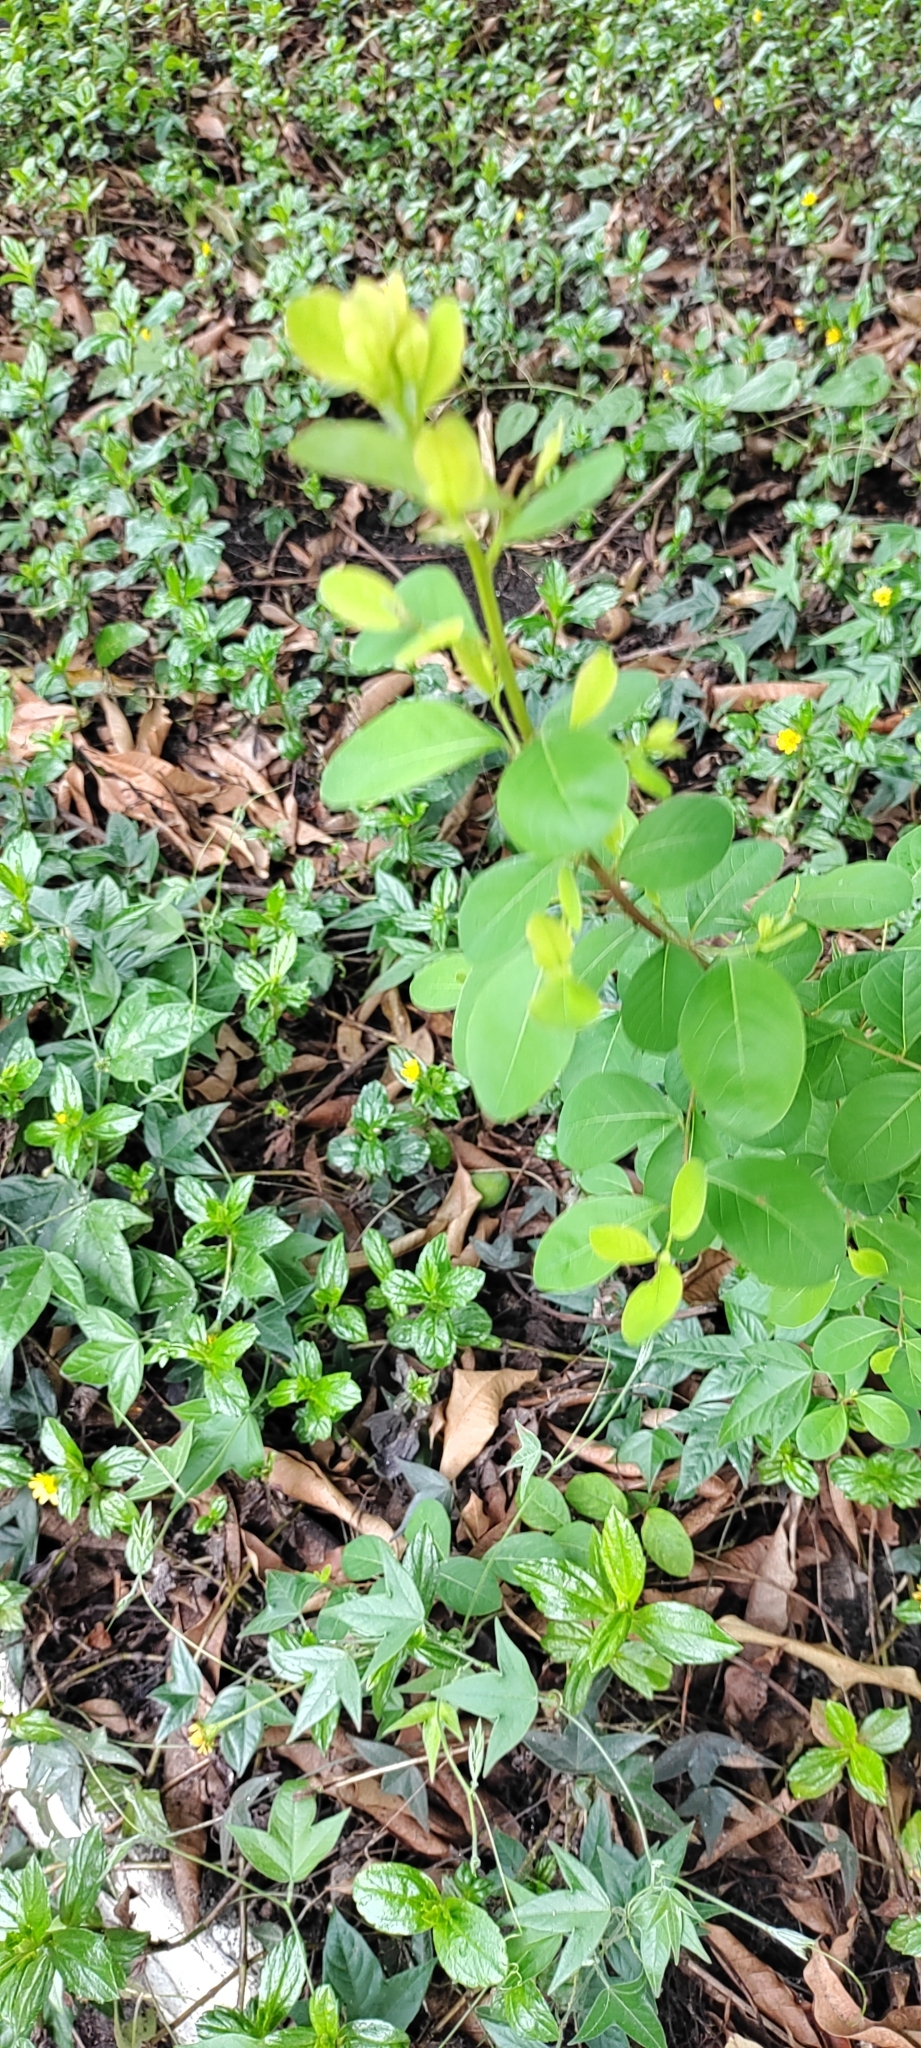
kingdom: Plantae
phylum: Tracheophyta
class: Magnoliopsida
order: Malpighiales
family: Phyllanthaceae
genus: Flueggea
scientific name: Flueggea virosa
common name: Common bushweed
